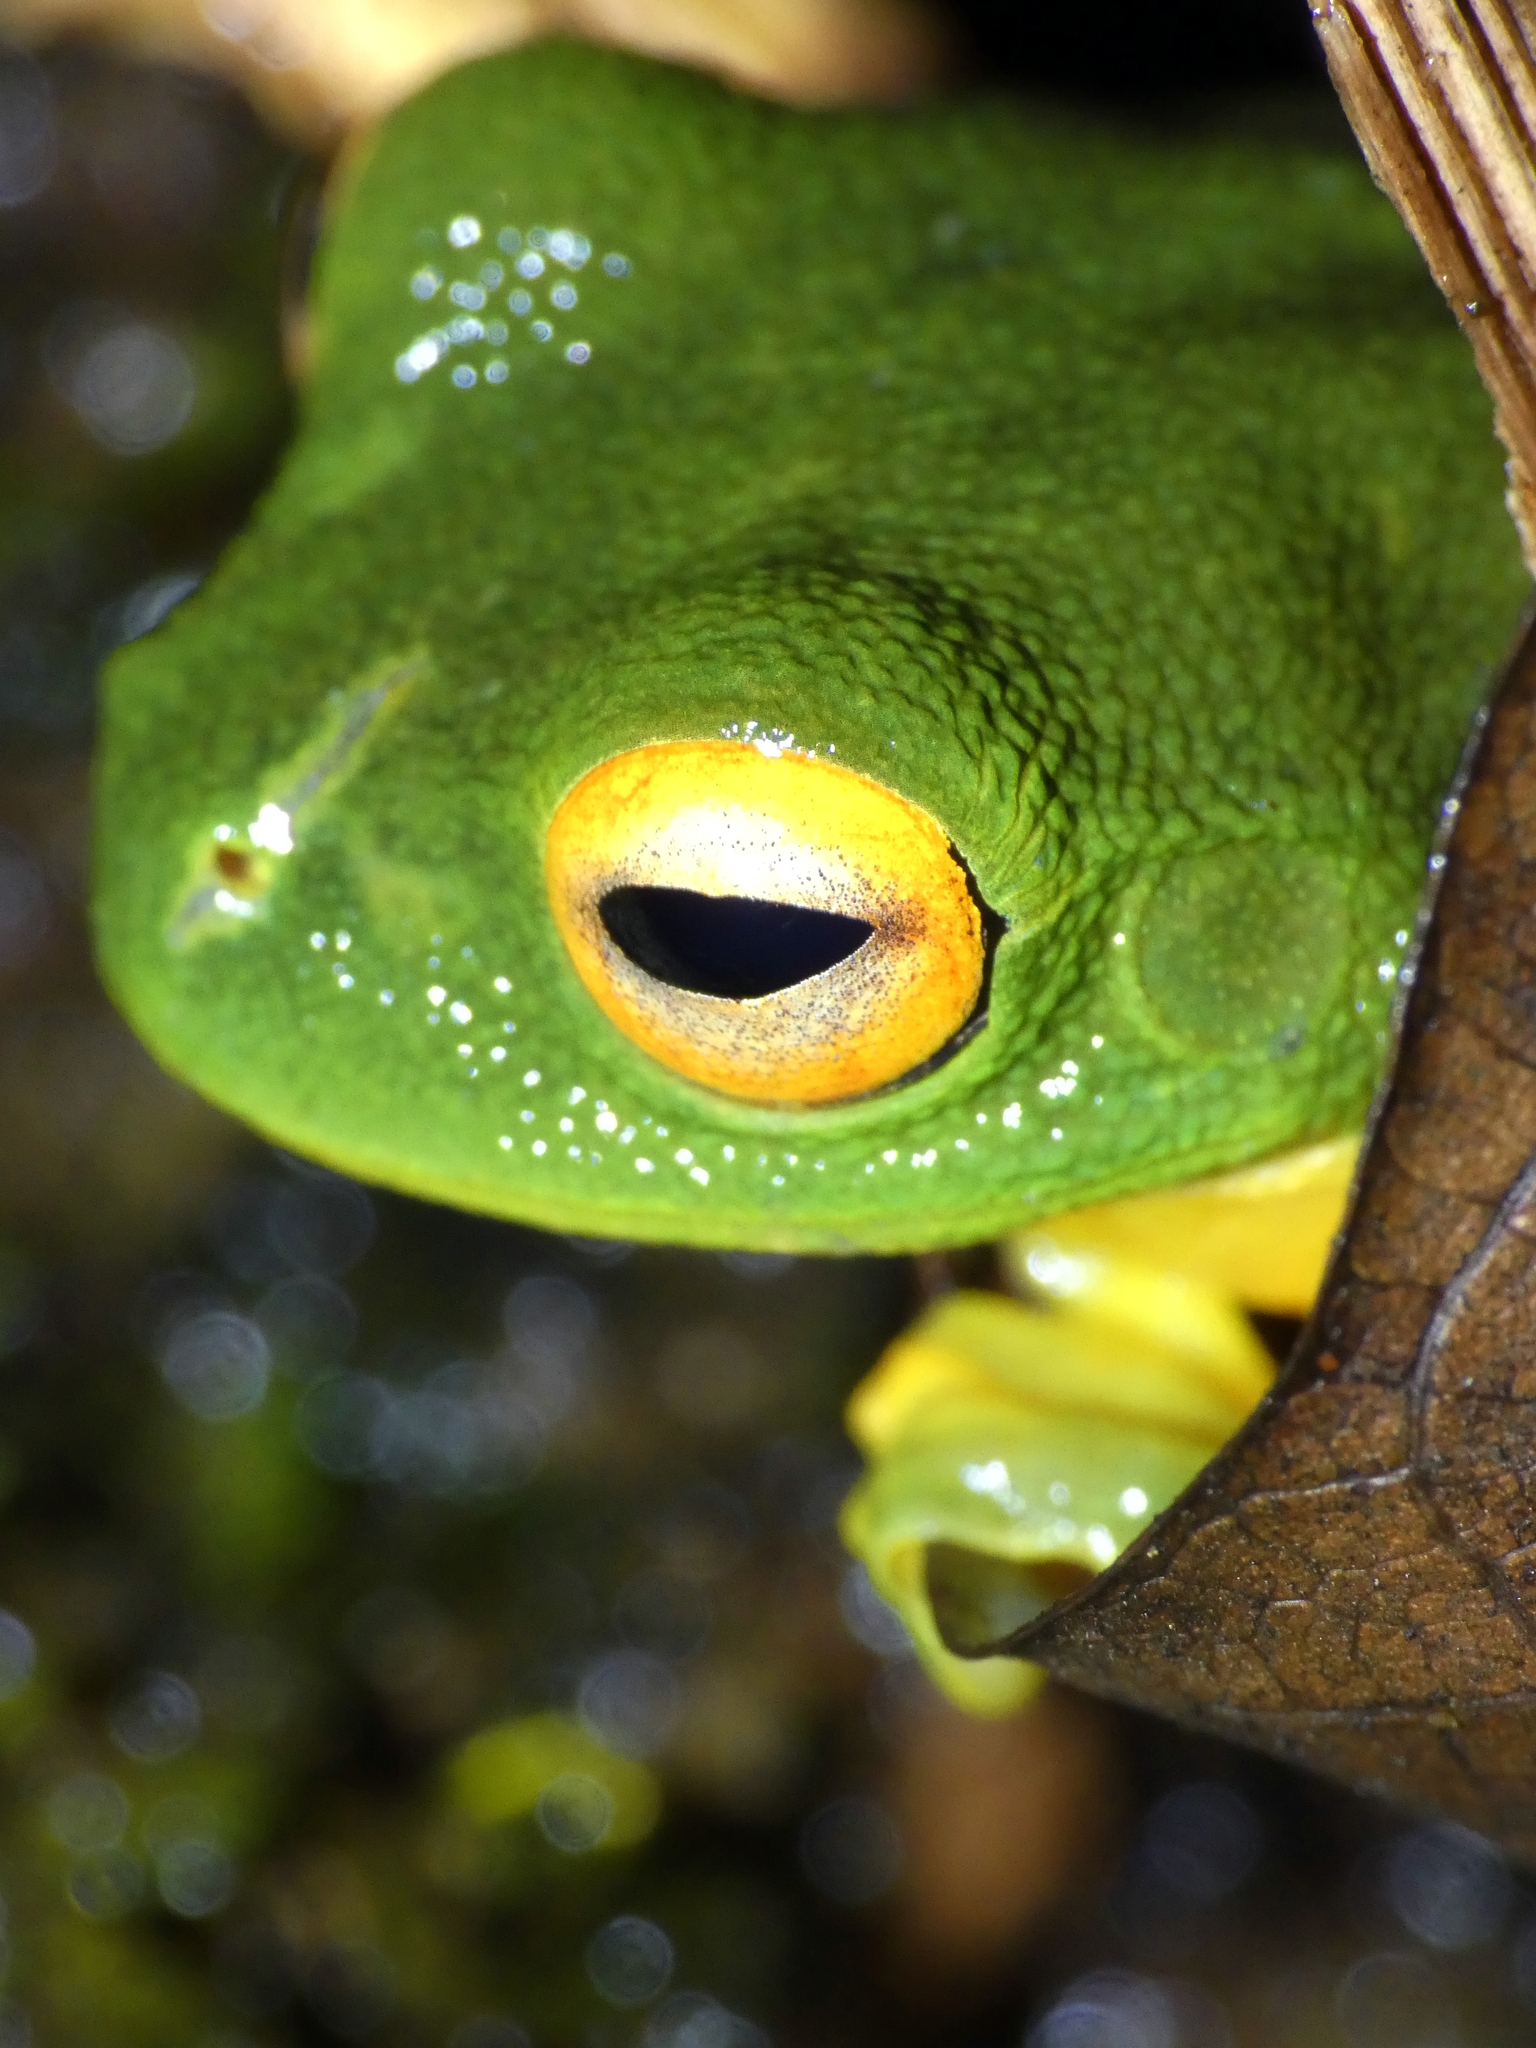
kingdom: Animalia
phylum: Chordata
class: Amphibia
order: Anura
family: Pelodryadidae
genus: Ranoidea
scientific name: Ranoidea xanthomera
